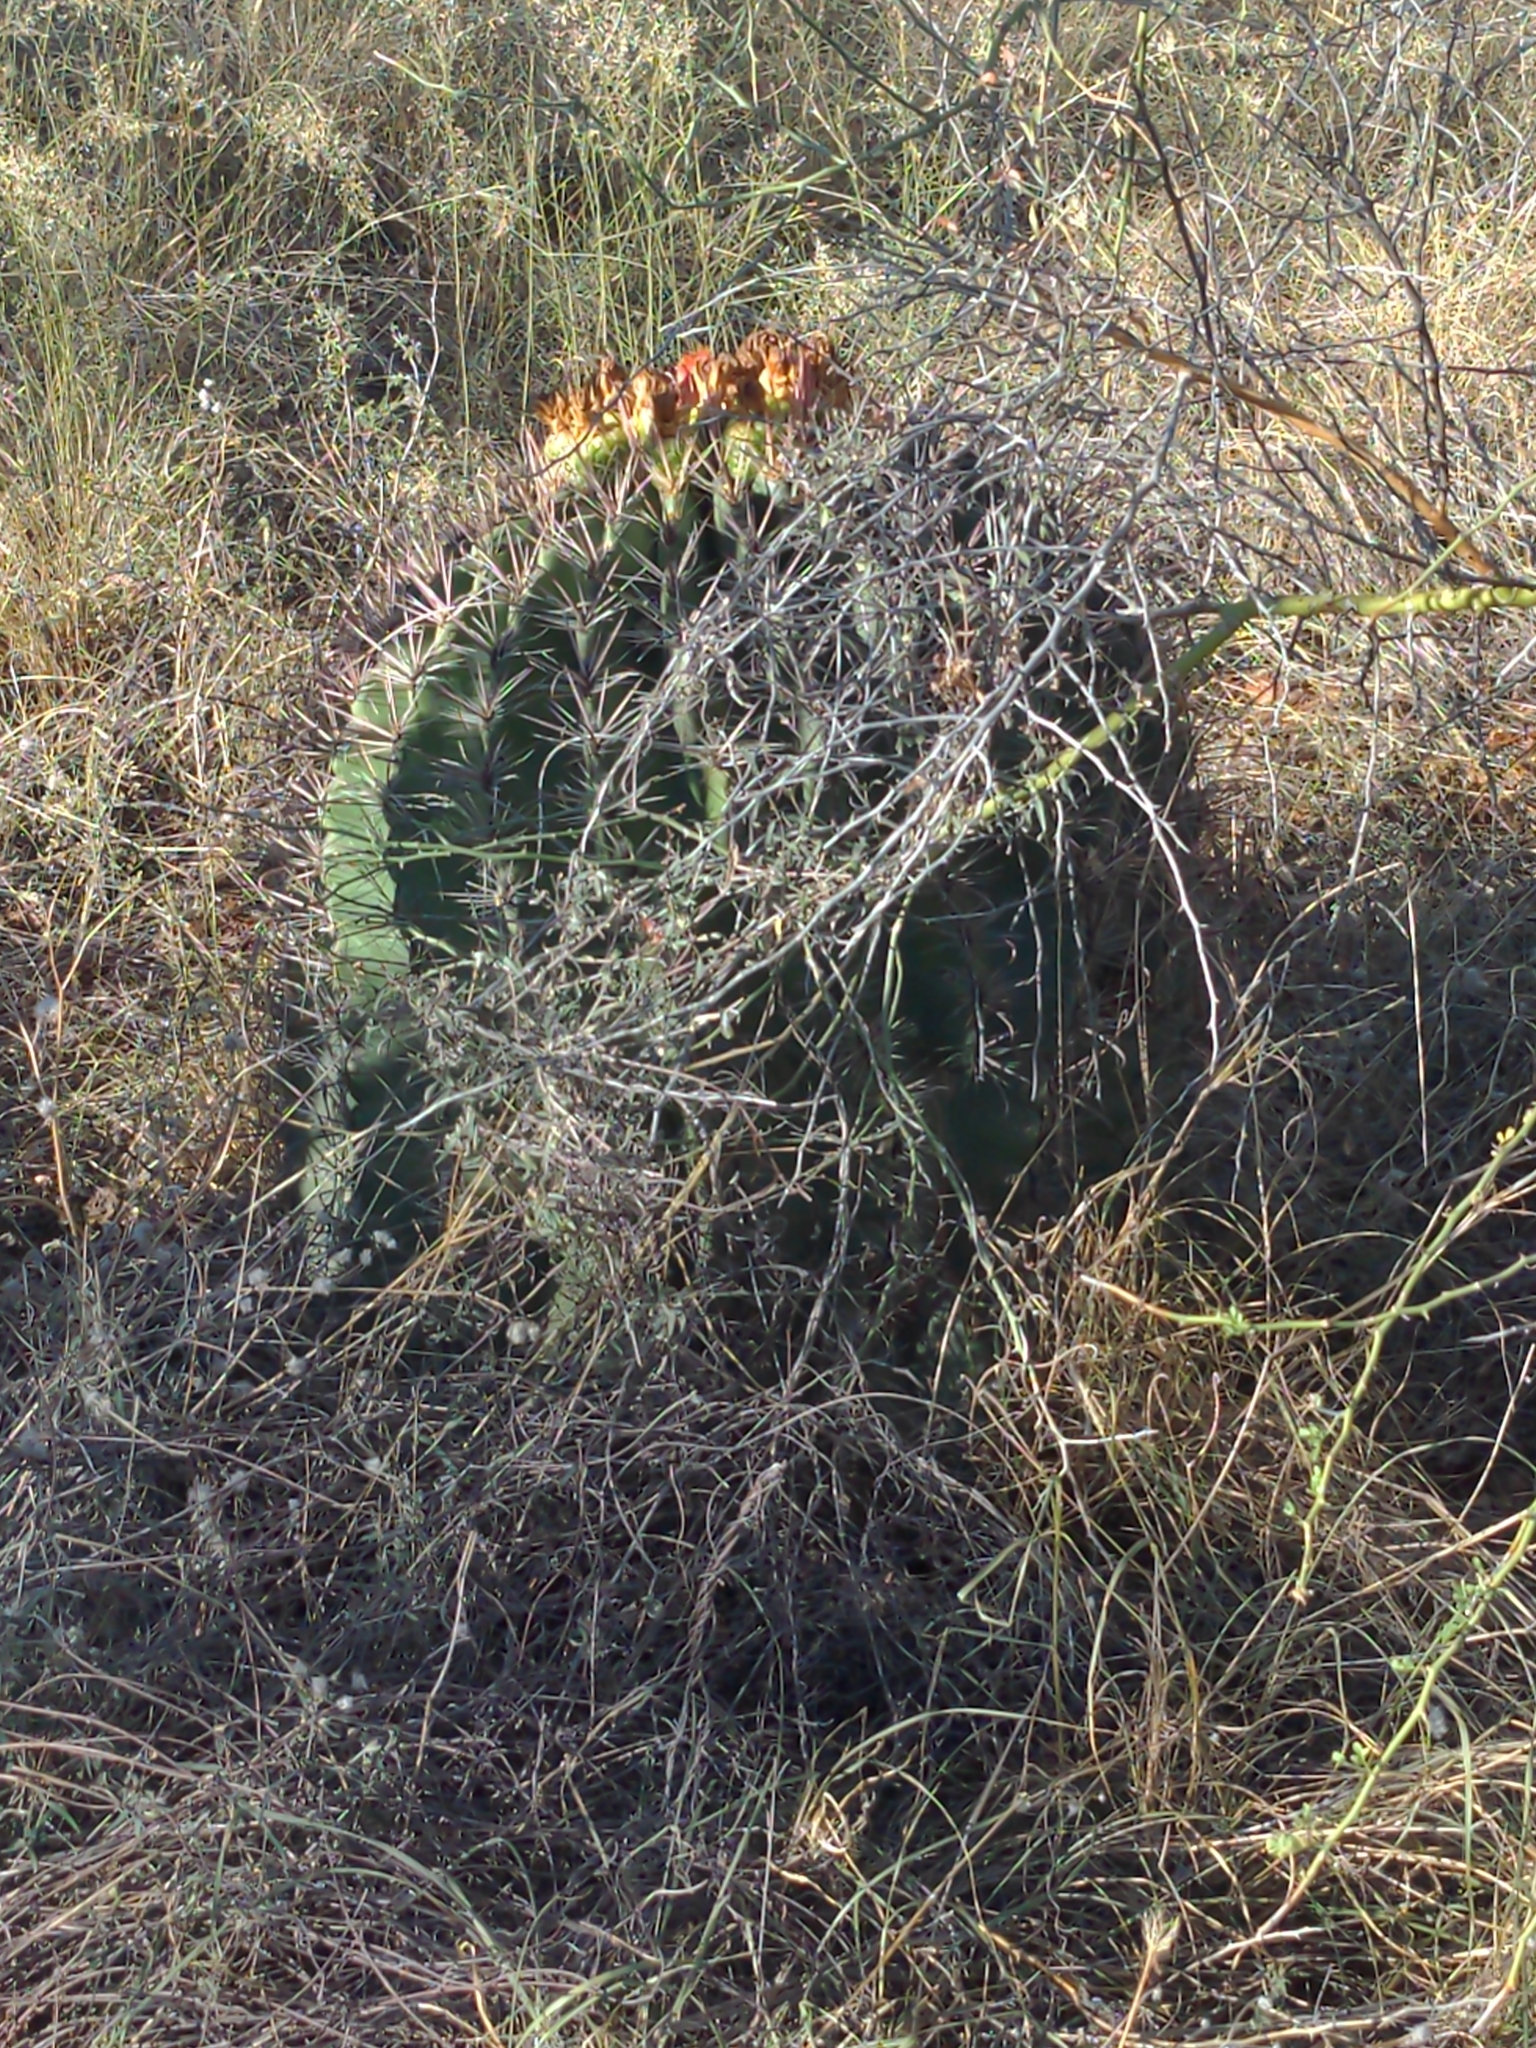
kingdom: Plantae
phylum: Tracheophyta
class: Magnoliopsida
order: Caryophyllales
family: Cactaceae
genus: Ferocactus
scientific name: Ferocactus wislizeni
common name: Candy barrel cactus
